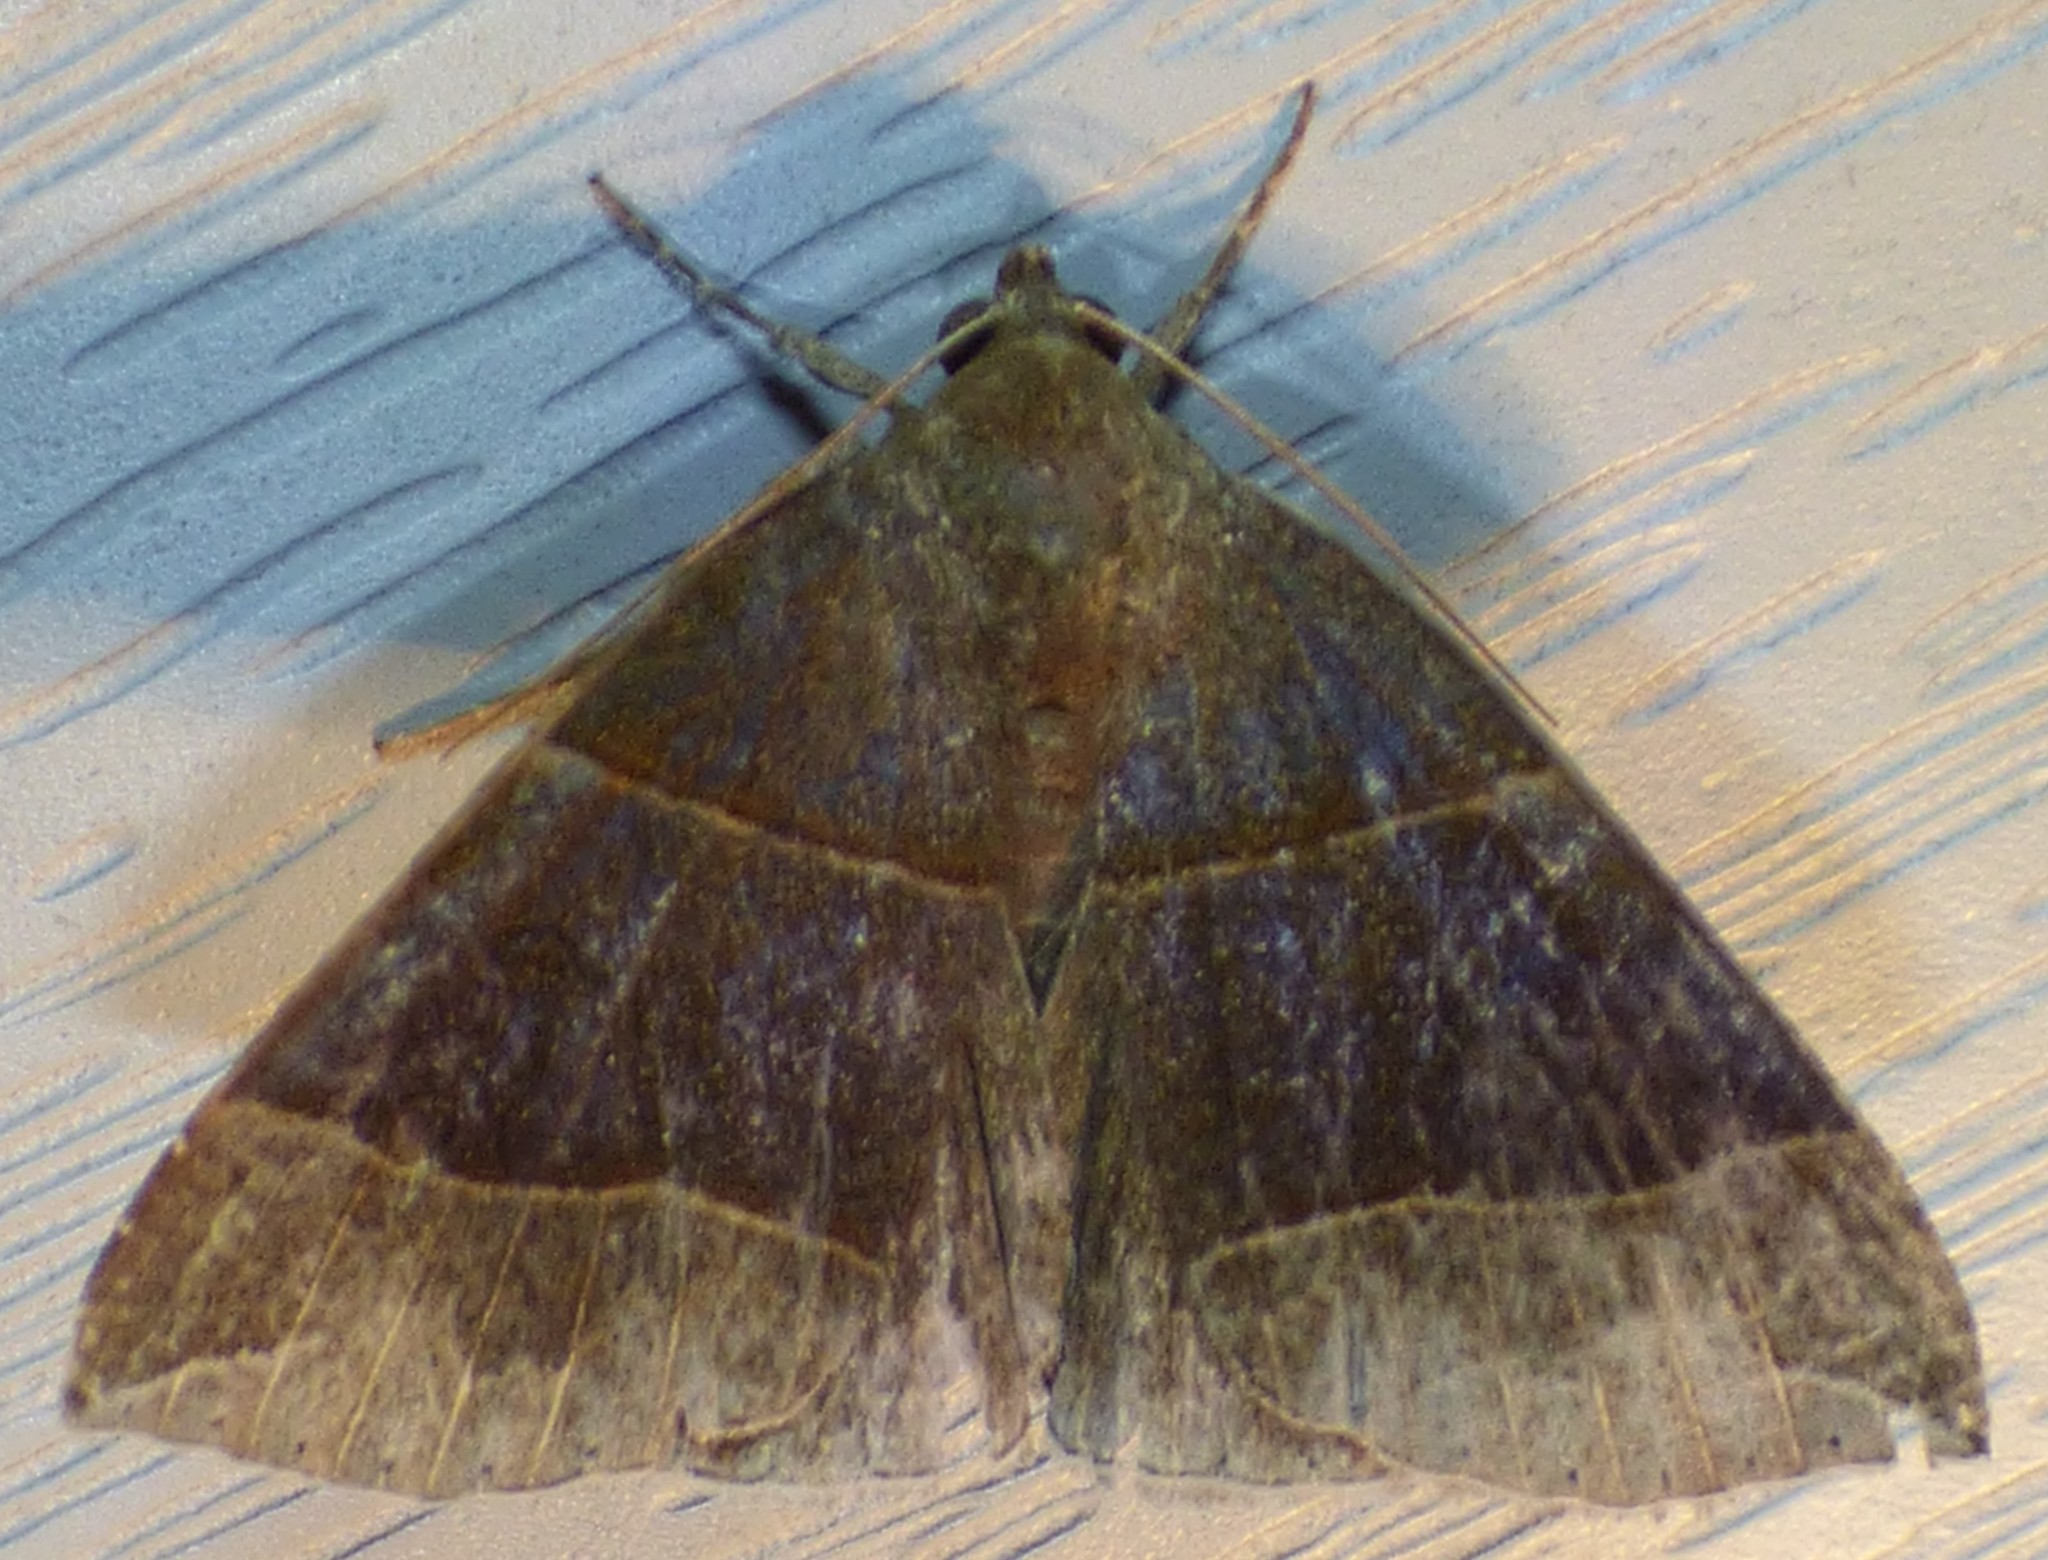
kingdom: Animalia
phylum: Arthropoda
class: Insecta
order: Lepidoptera
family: Erebidae
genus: Parallelia
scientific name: Parallelia bistriaris
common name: Maple looper moth
